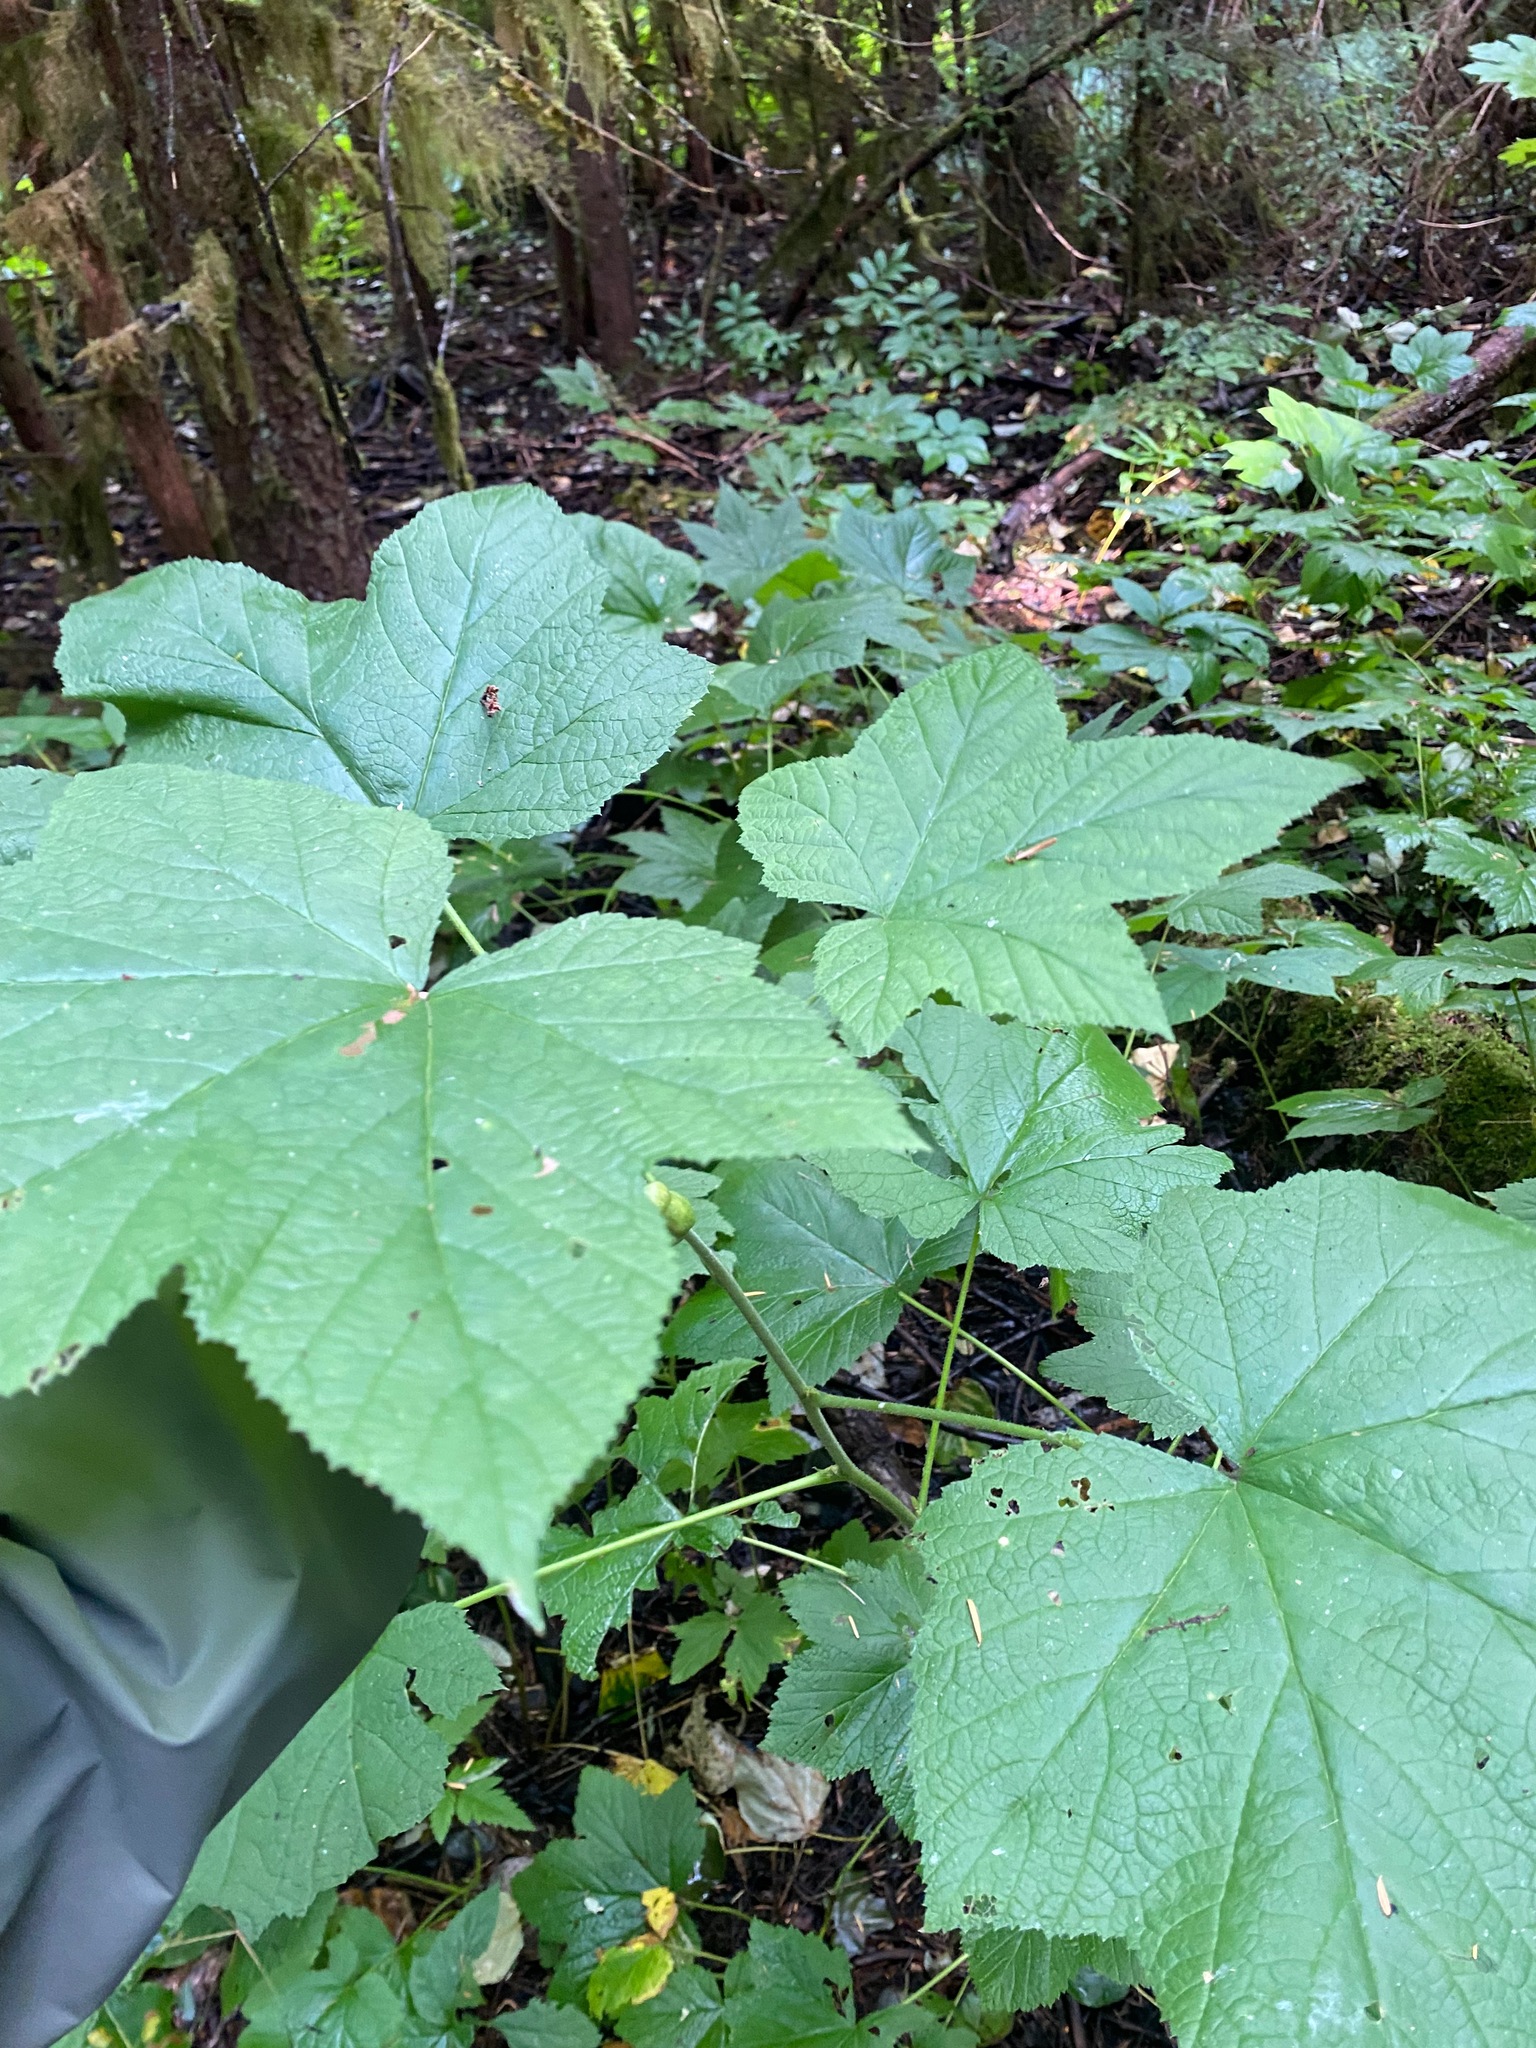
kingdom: Plantae
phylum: Tracheophyta
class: Magnoliopsida
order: Rosales
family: Rosaceae
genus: Rubus
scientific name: Rubus parviflorus
